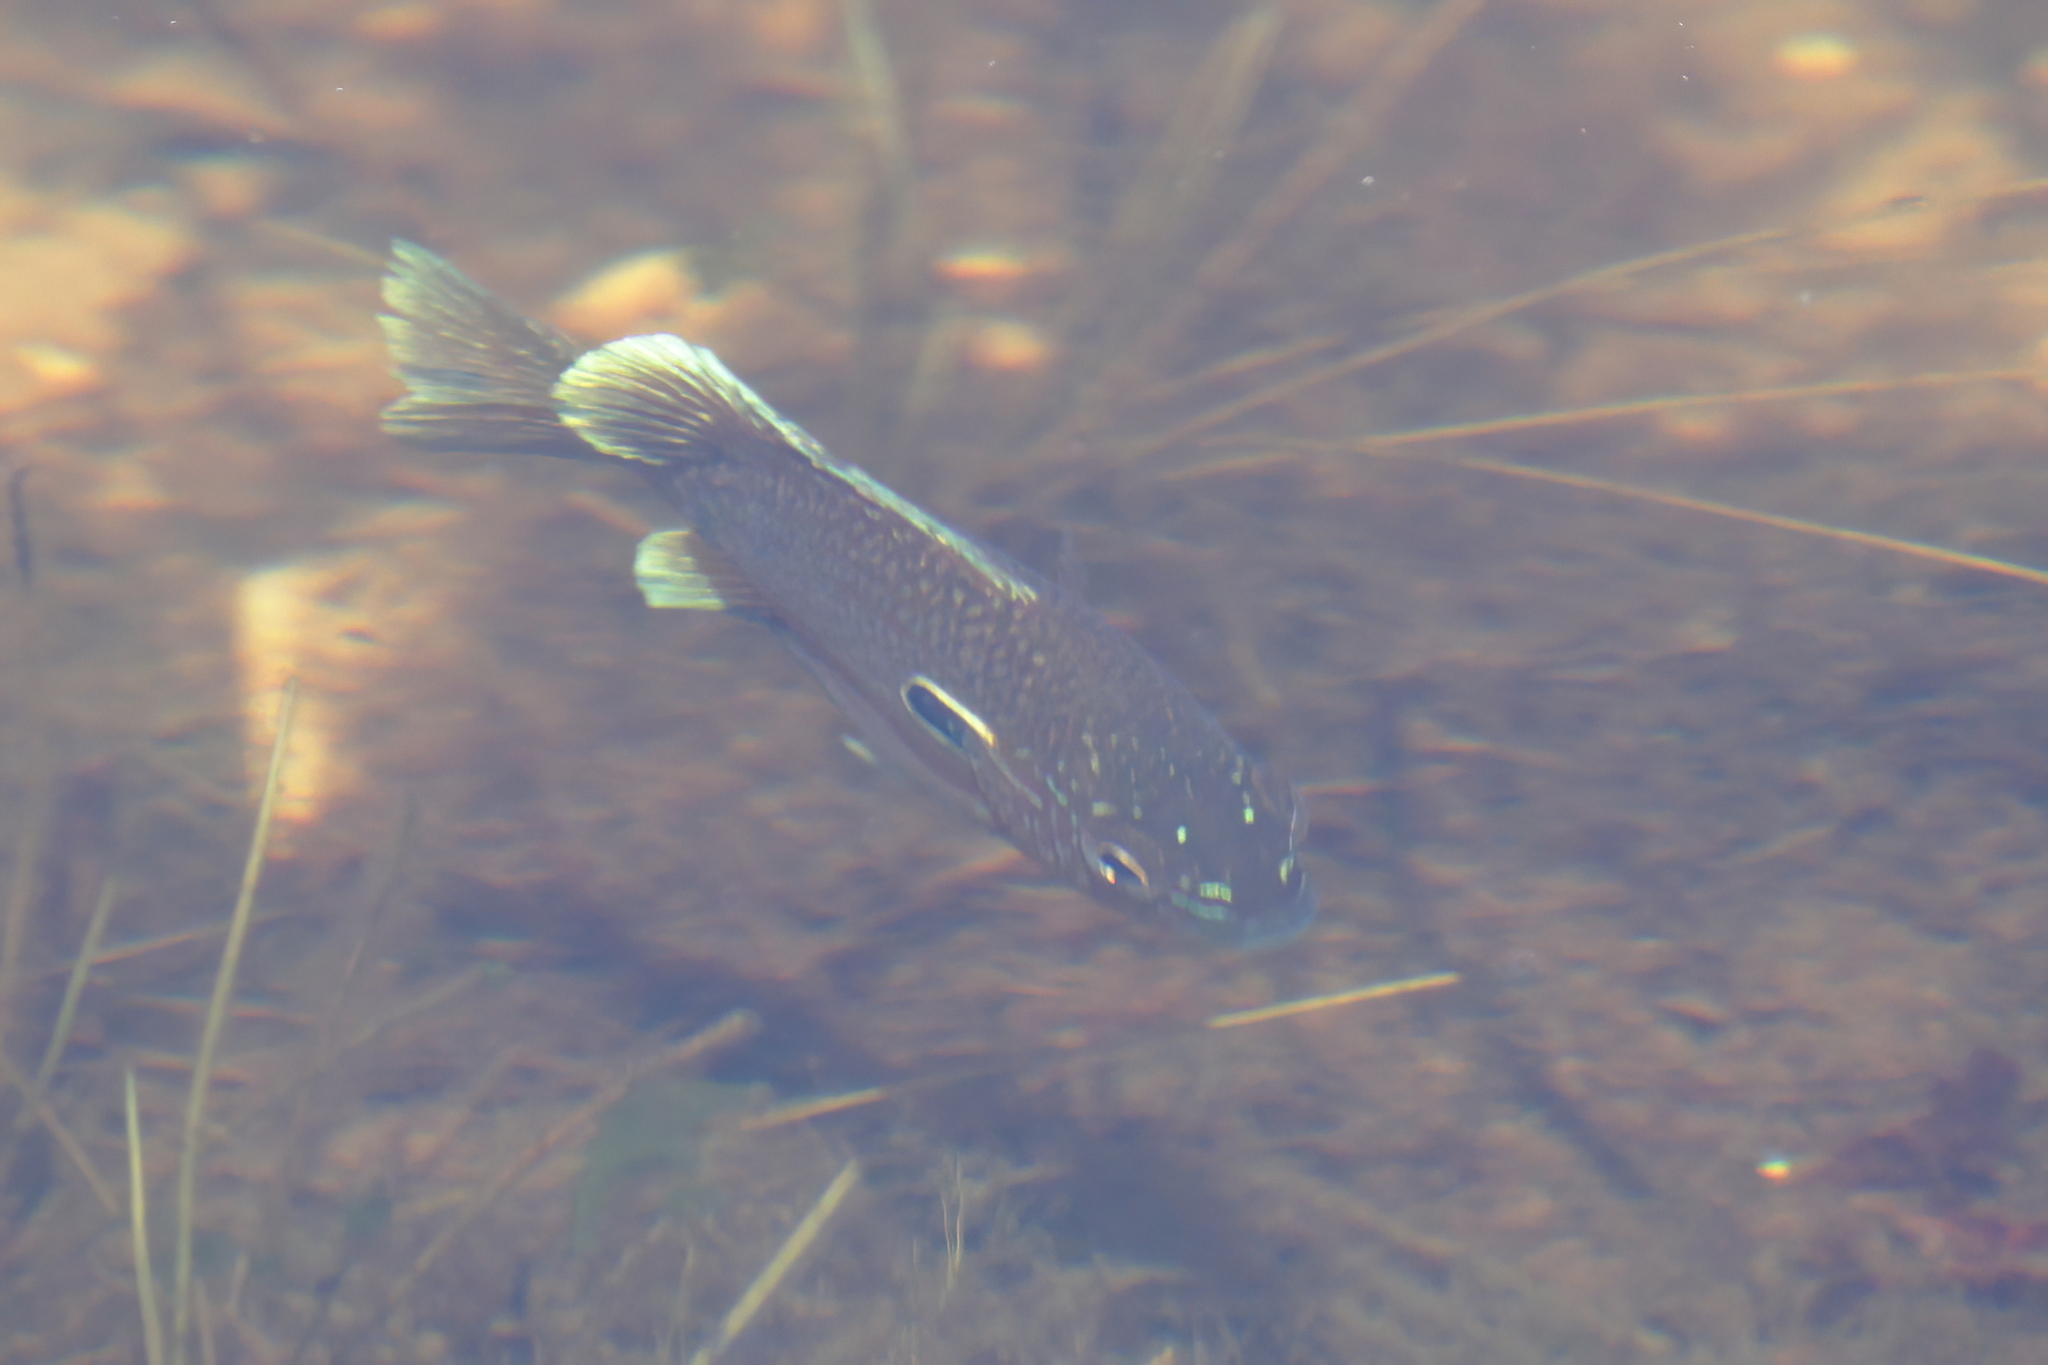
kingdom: Animalia
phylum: Chordata
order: Perciformes
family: Centrarchidae
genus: Lepomis
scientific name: Lepomis marginatus
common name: Dollar sunfish
